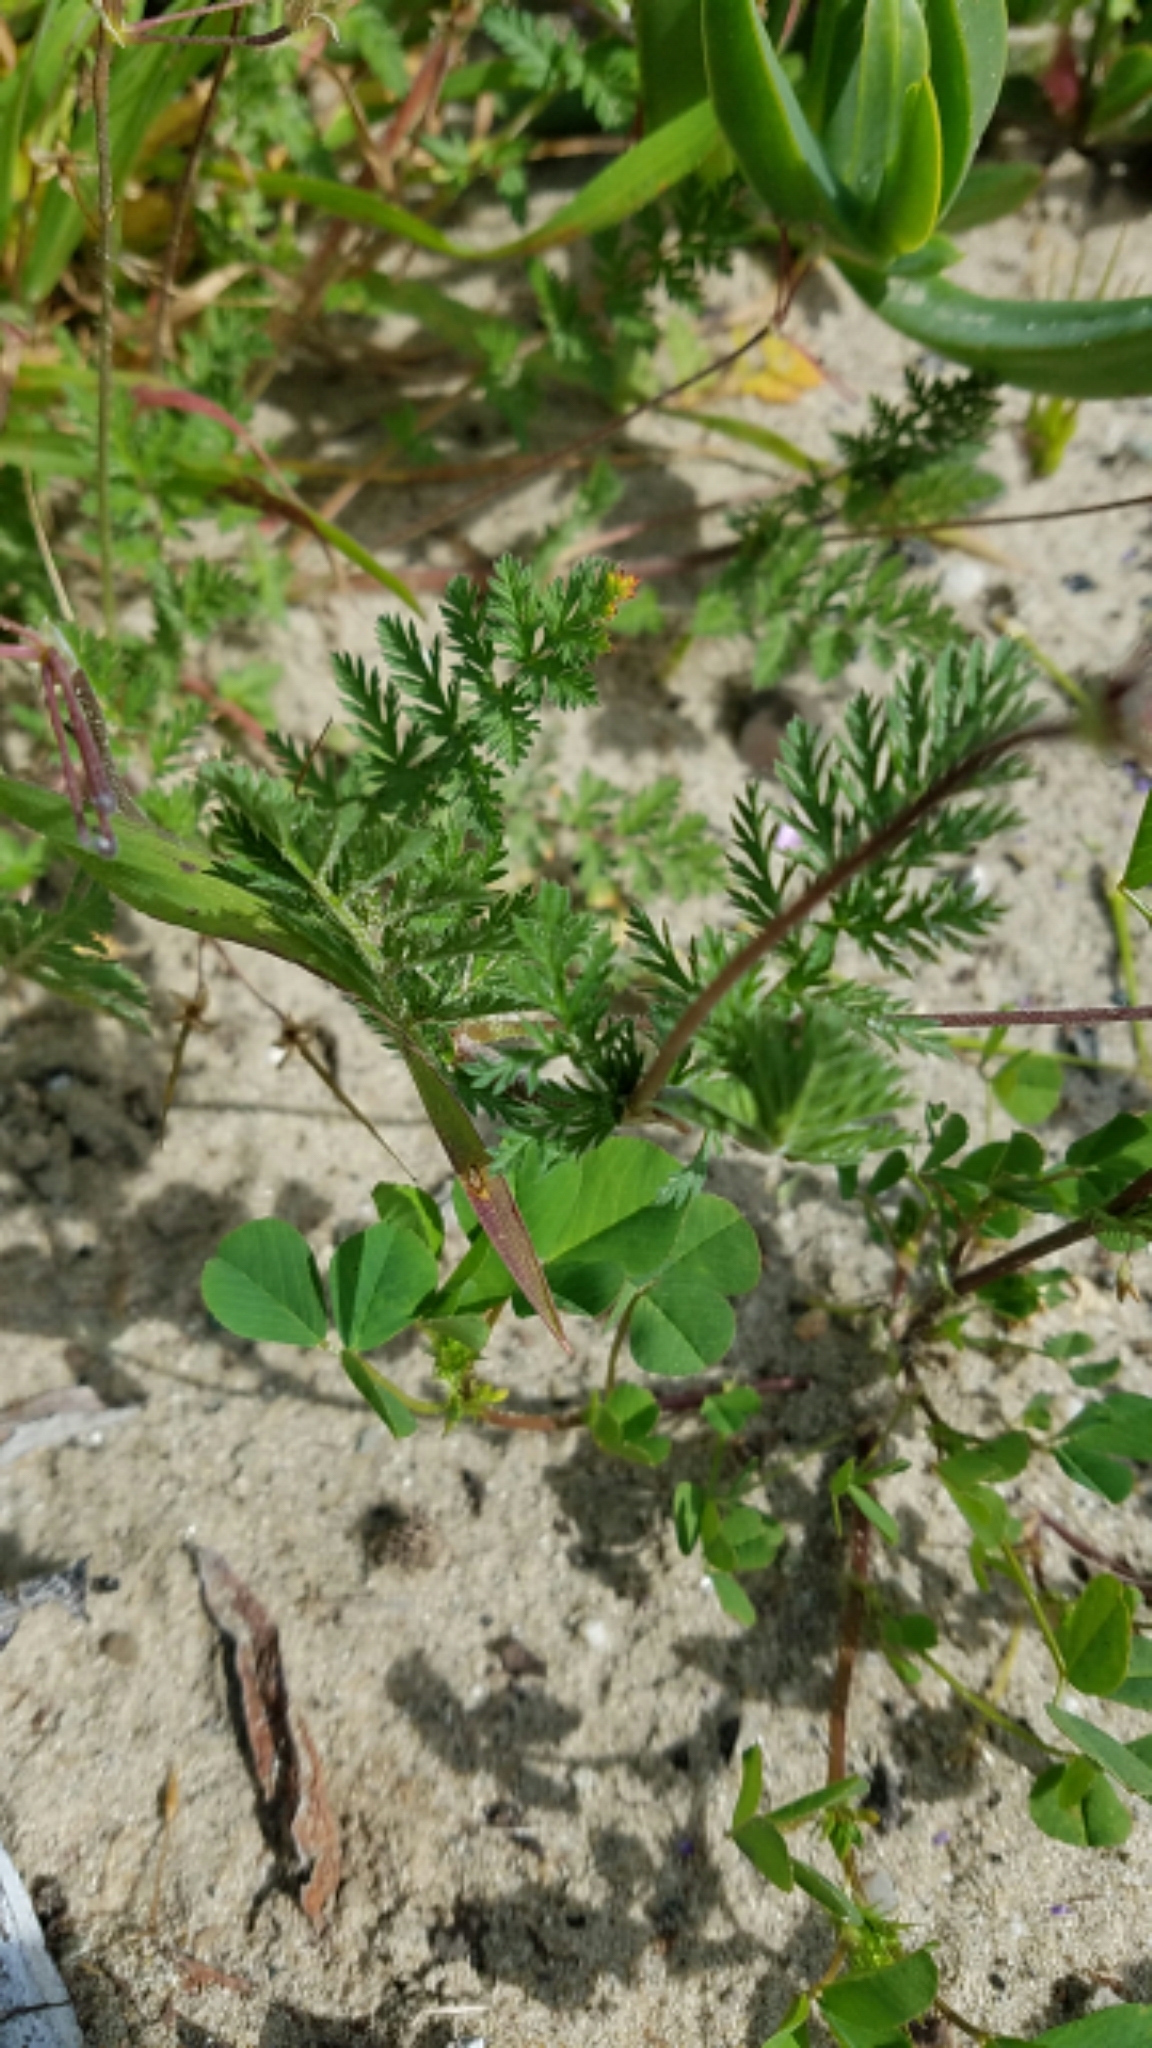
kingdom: Plantae
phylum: Tracheophyta
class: Magnoliopsida
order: Geraniales
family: Geraniaceae
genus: Erodium
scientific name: Erodium cicutarium
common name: Common stork's-bill
